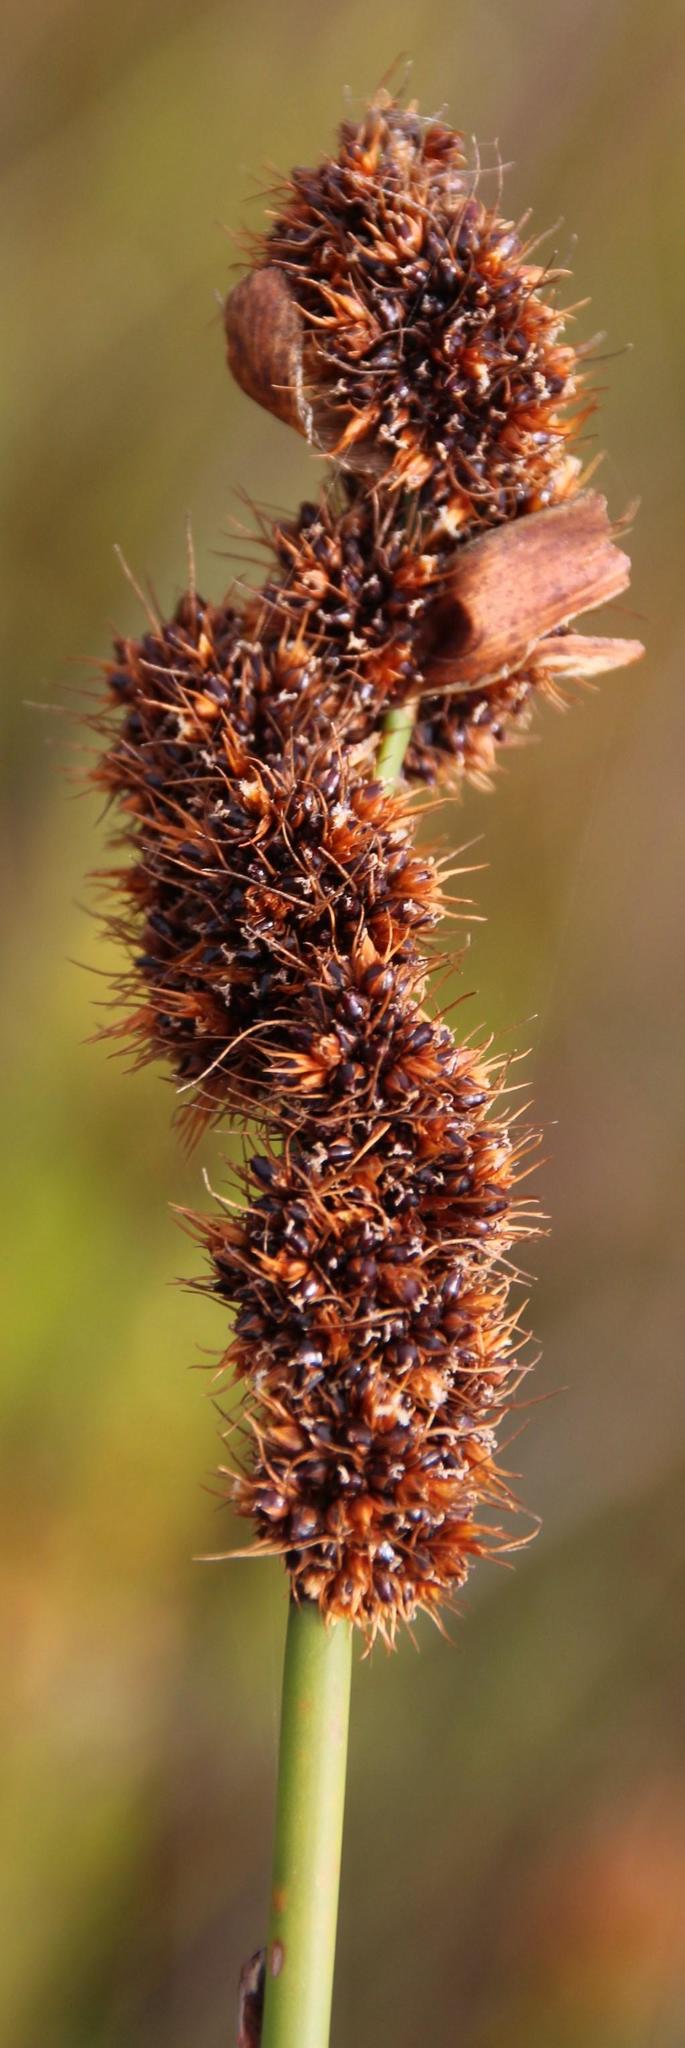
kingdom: Plantae
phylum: Tracheophyta
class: Liliopsida
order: Poales
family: Restionaceae
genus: Elegia
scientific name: Elegia cuspidata
